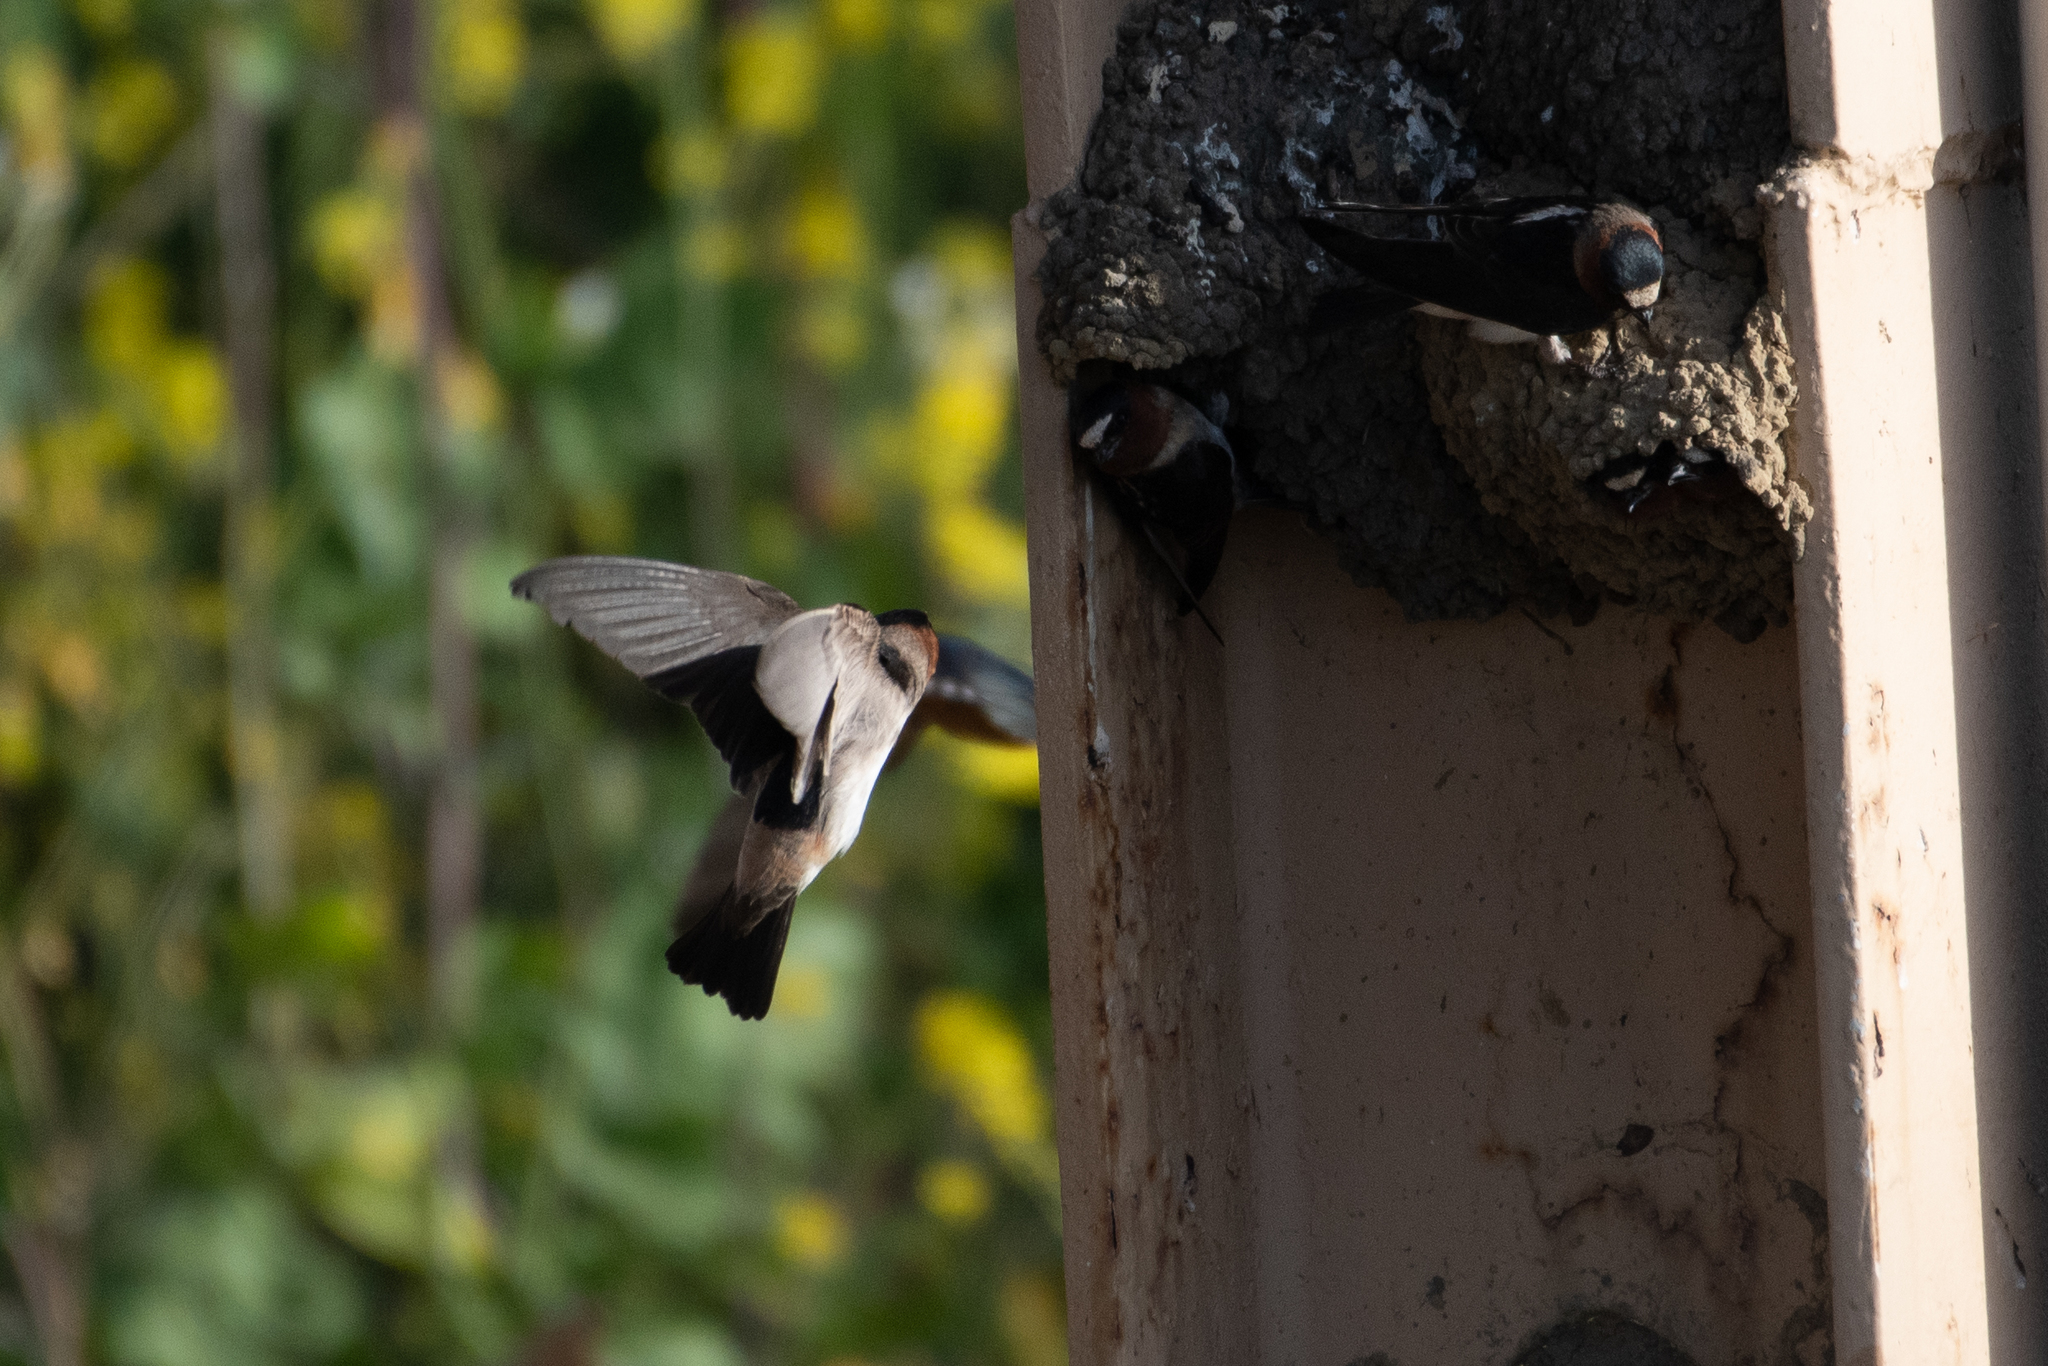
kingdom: Animalia
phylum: Chordata
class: Aves
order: Passeriformes
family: Hirundinidae
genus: Petrochelidon
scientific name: Petrochelidon pyrrhonota
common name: American cliff swallow
